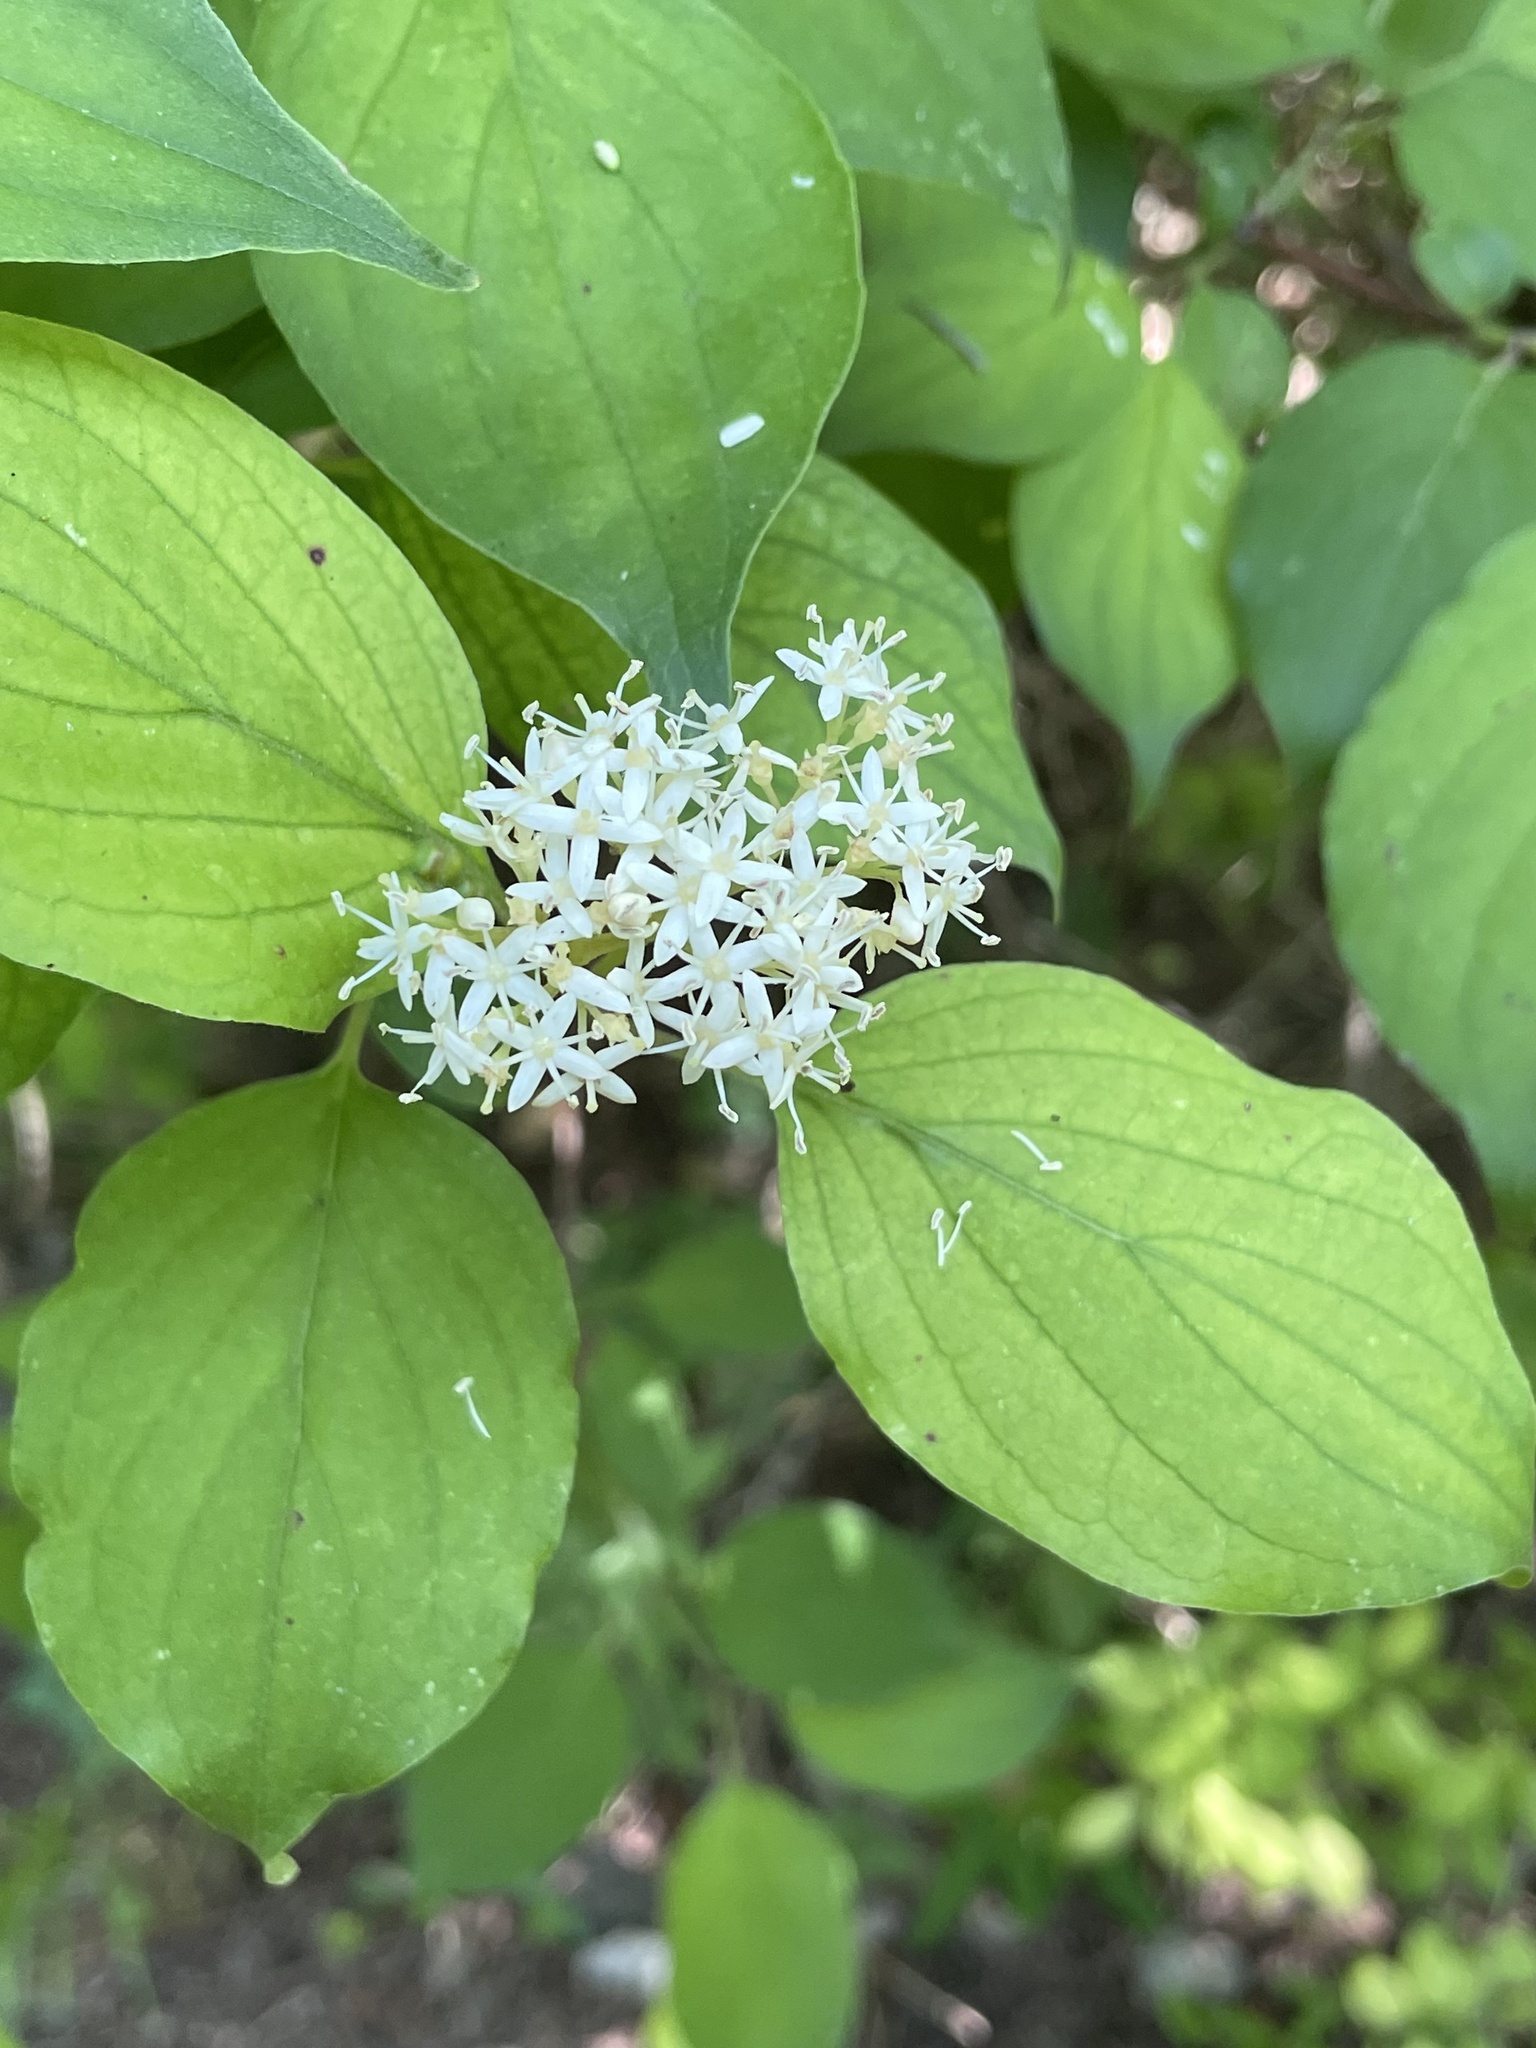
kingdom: Plantae
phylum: Tracheophyta
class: Magnoliopsida
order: Cornales
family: Cornaceae
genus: Cornus
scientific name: Cornus drummondii
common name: Rough-leaf dogwood
